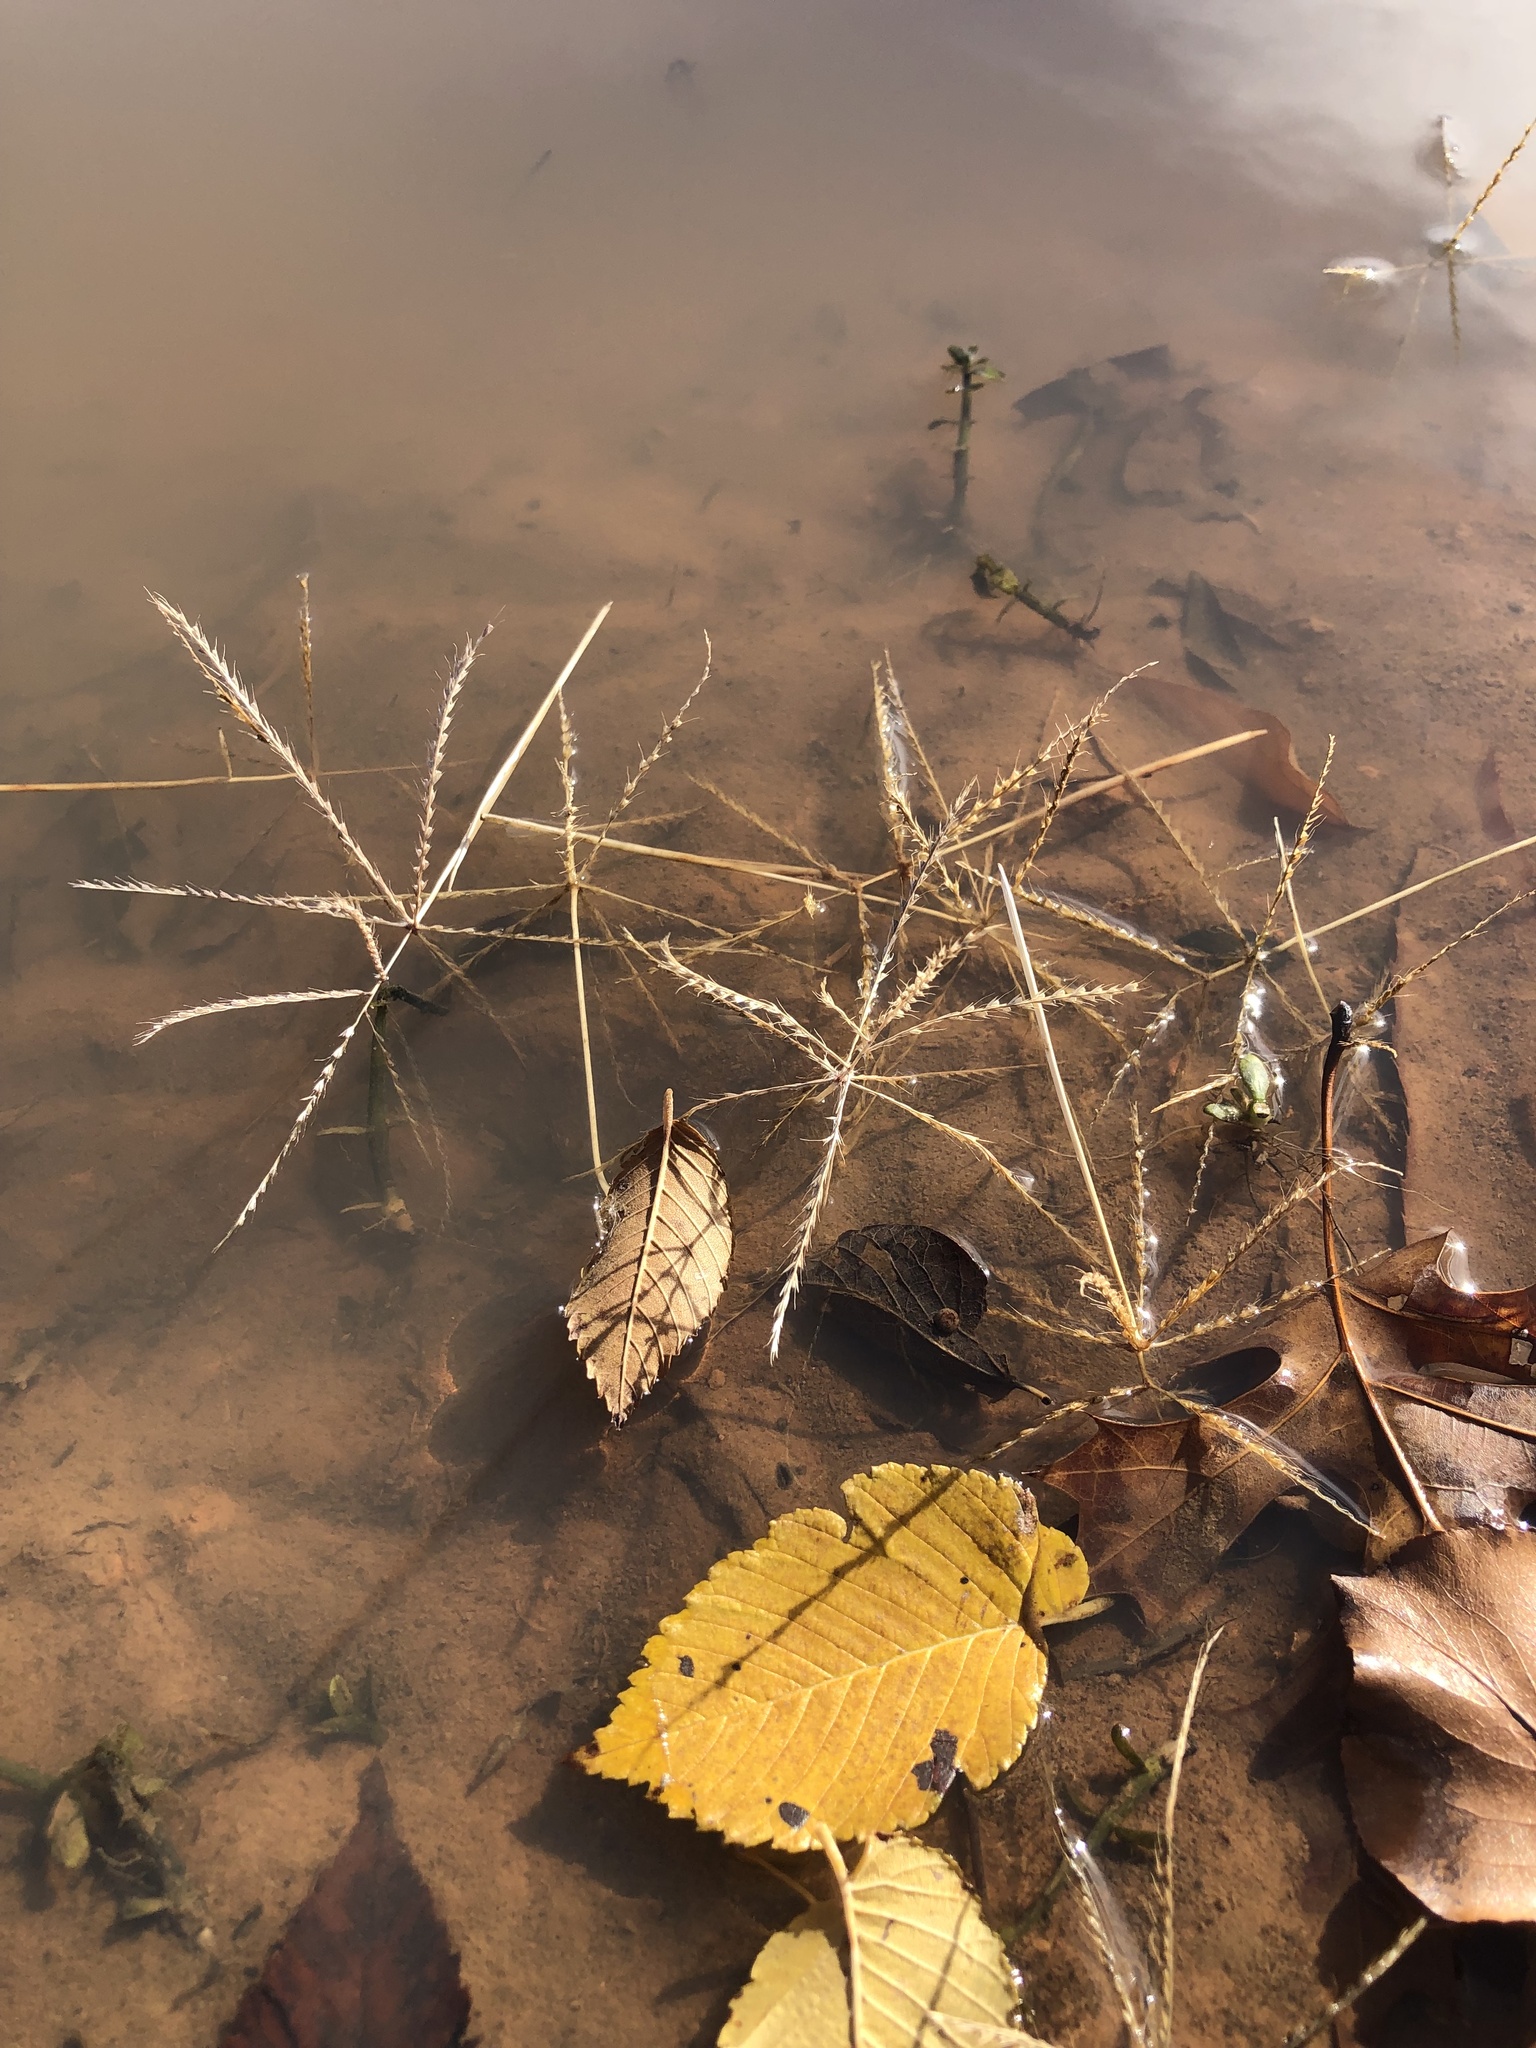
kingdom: Plantae
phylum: Tracheophyta
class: Liliopsida
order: Poales
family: Poaceae
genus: Chloris
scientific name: Chloris verticillata
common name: Tumble windmill grass
